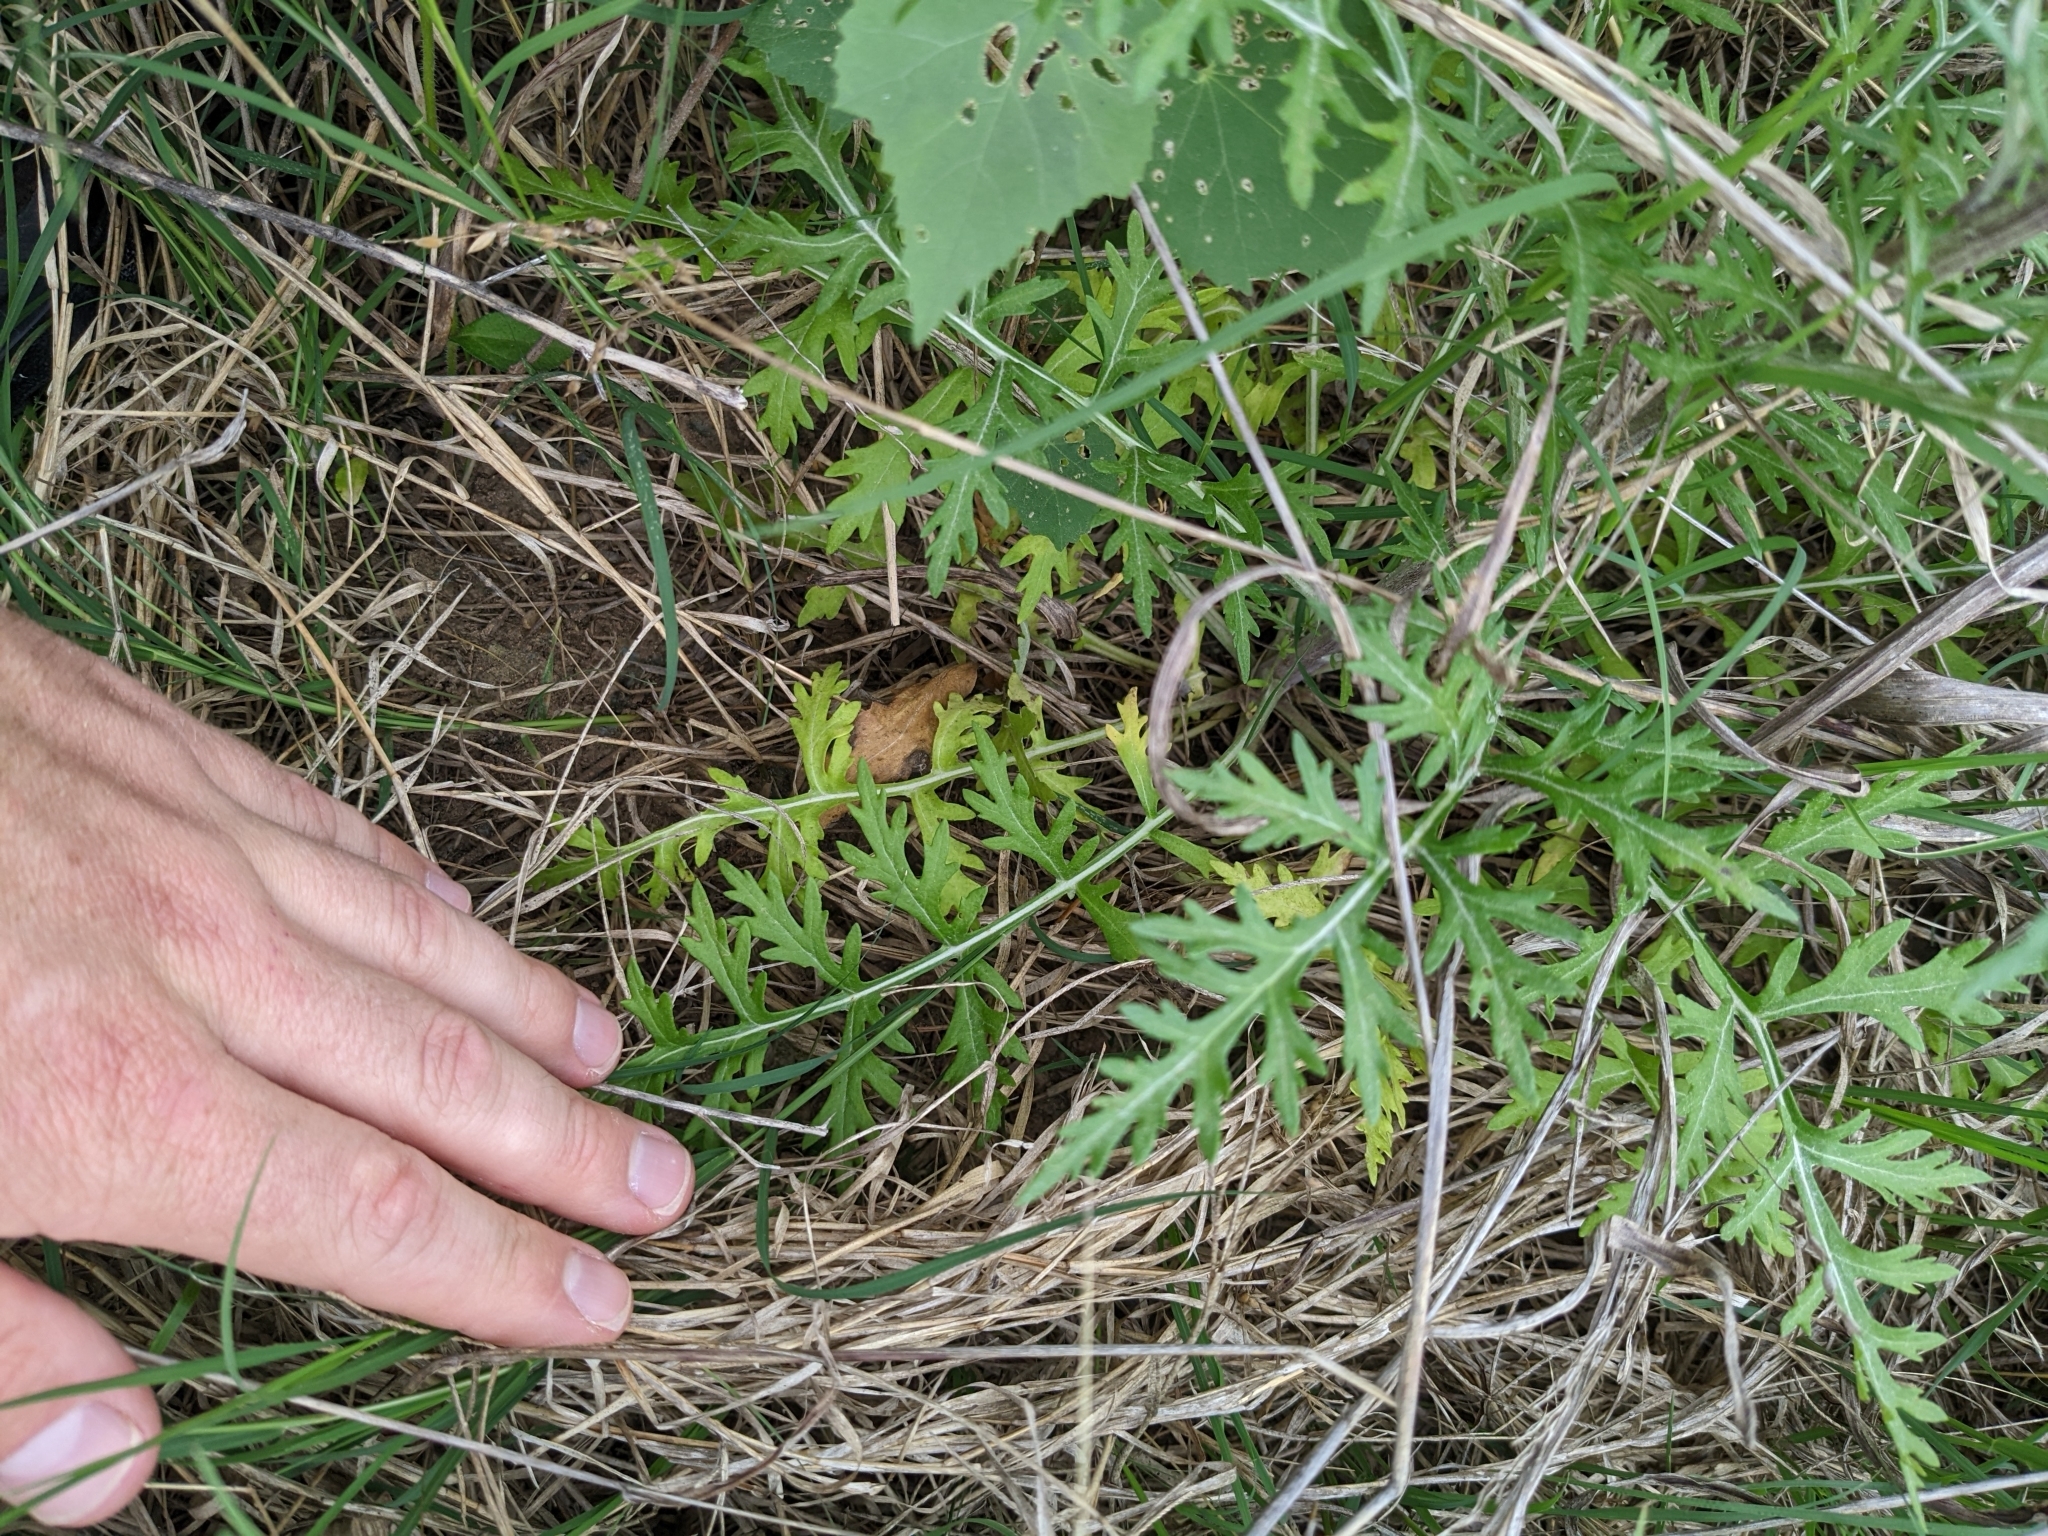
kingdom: Plantae
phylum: Tracheophyta
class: Magnoliopsida
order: Asterales
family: Asteraceae
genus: Hymenopappus
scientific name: Hymenopappus scabiosaeus
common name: Carolina woollywhite
